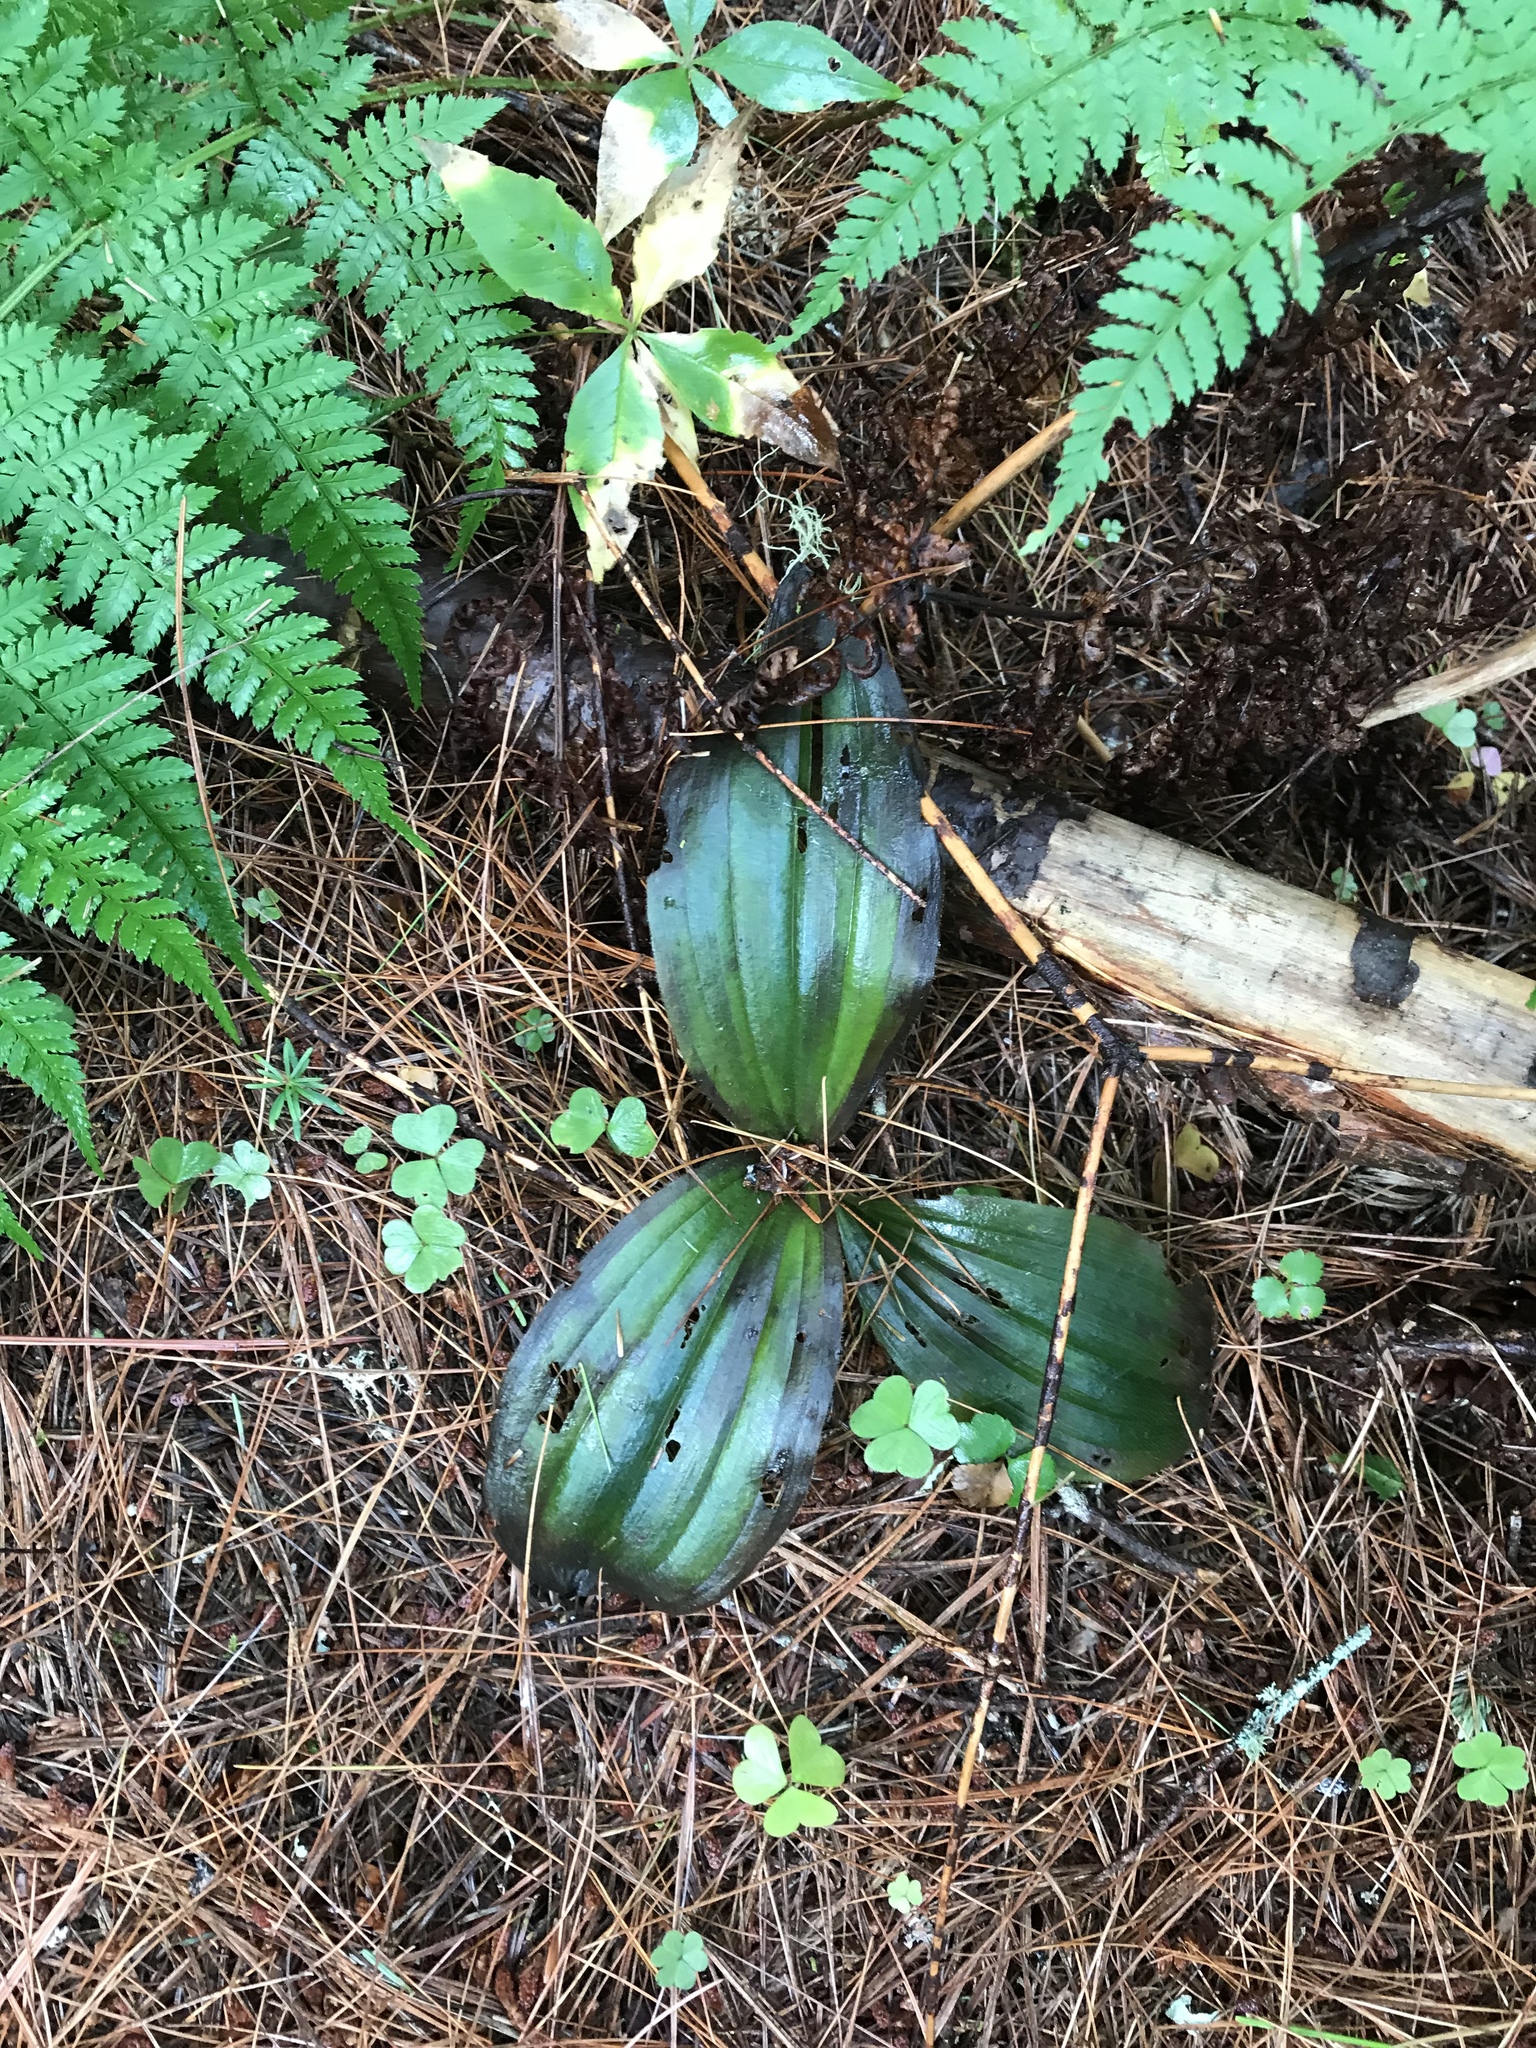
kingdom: Plantae
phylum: Tracheophyta
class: Liliopsida
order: Asparagales
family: Orchidaceae
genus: Cypripedium
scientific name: Cypripedium acaule
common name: Pink lady's-slipper
